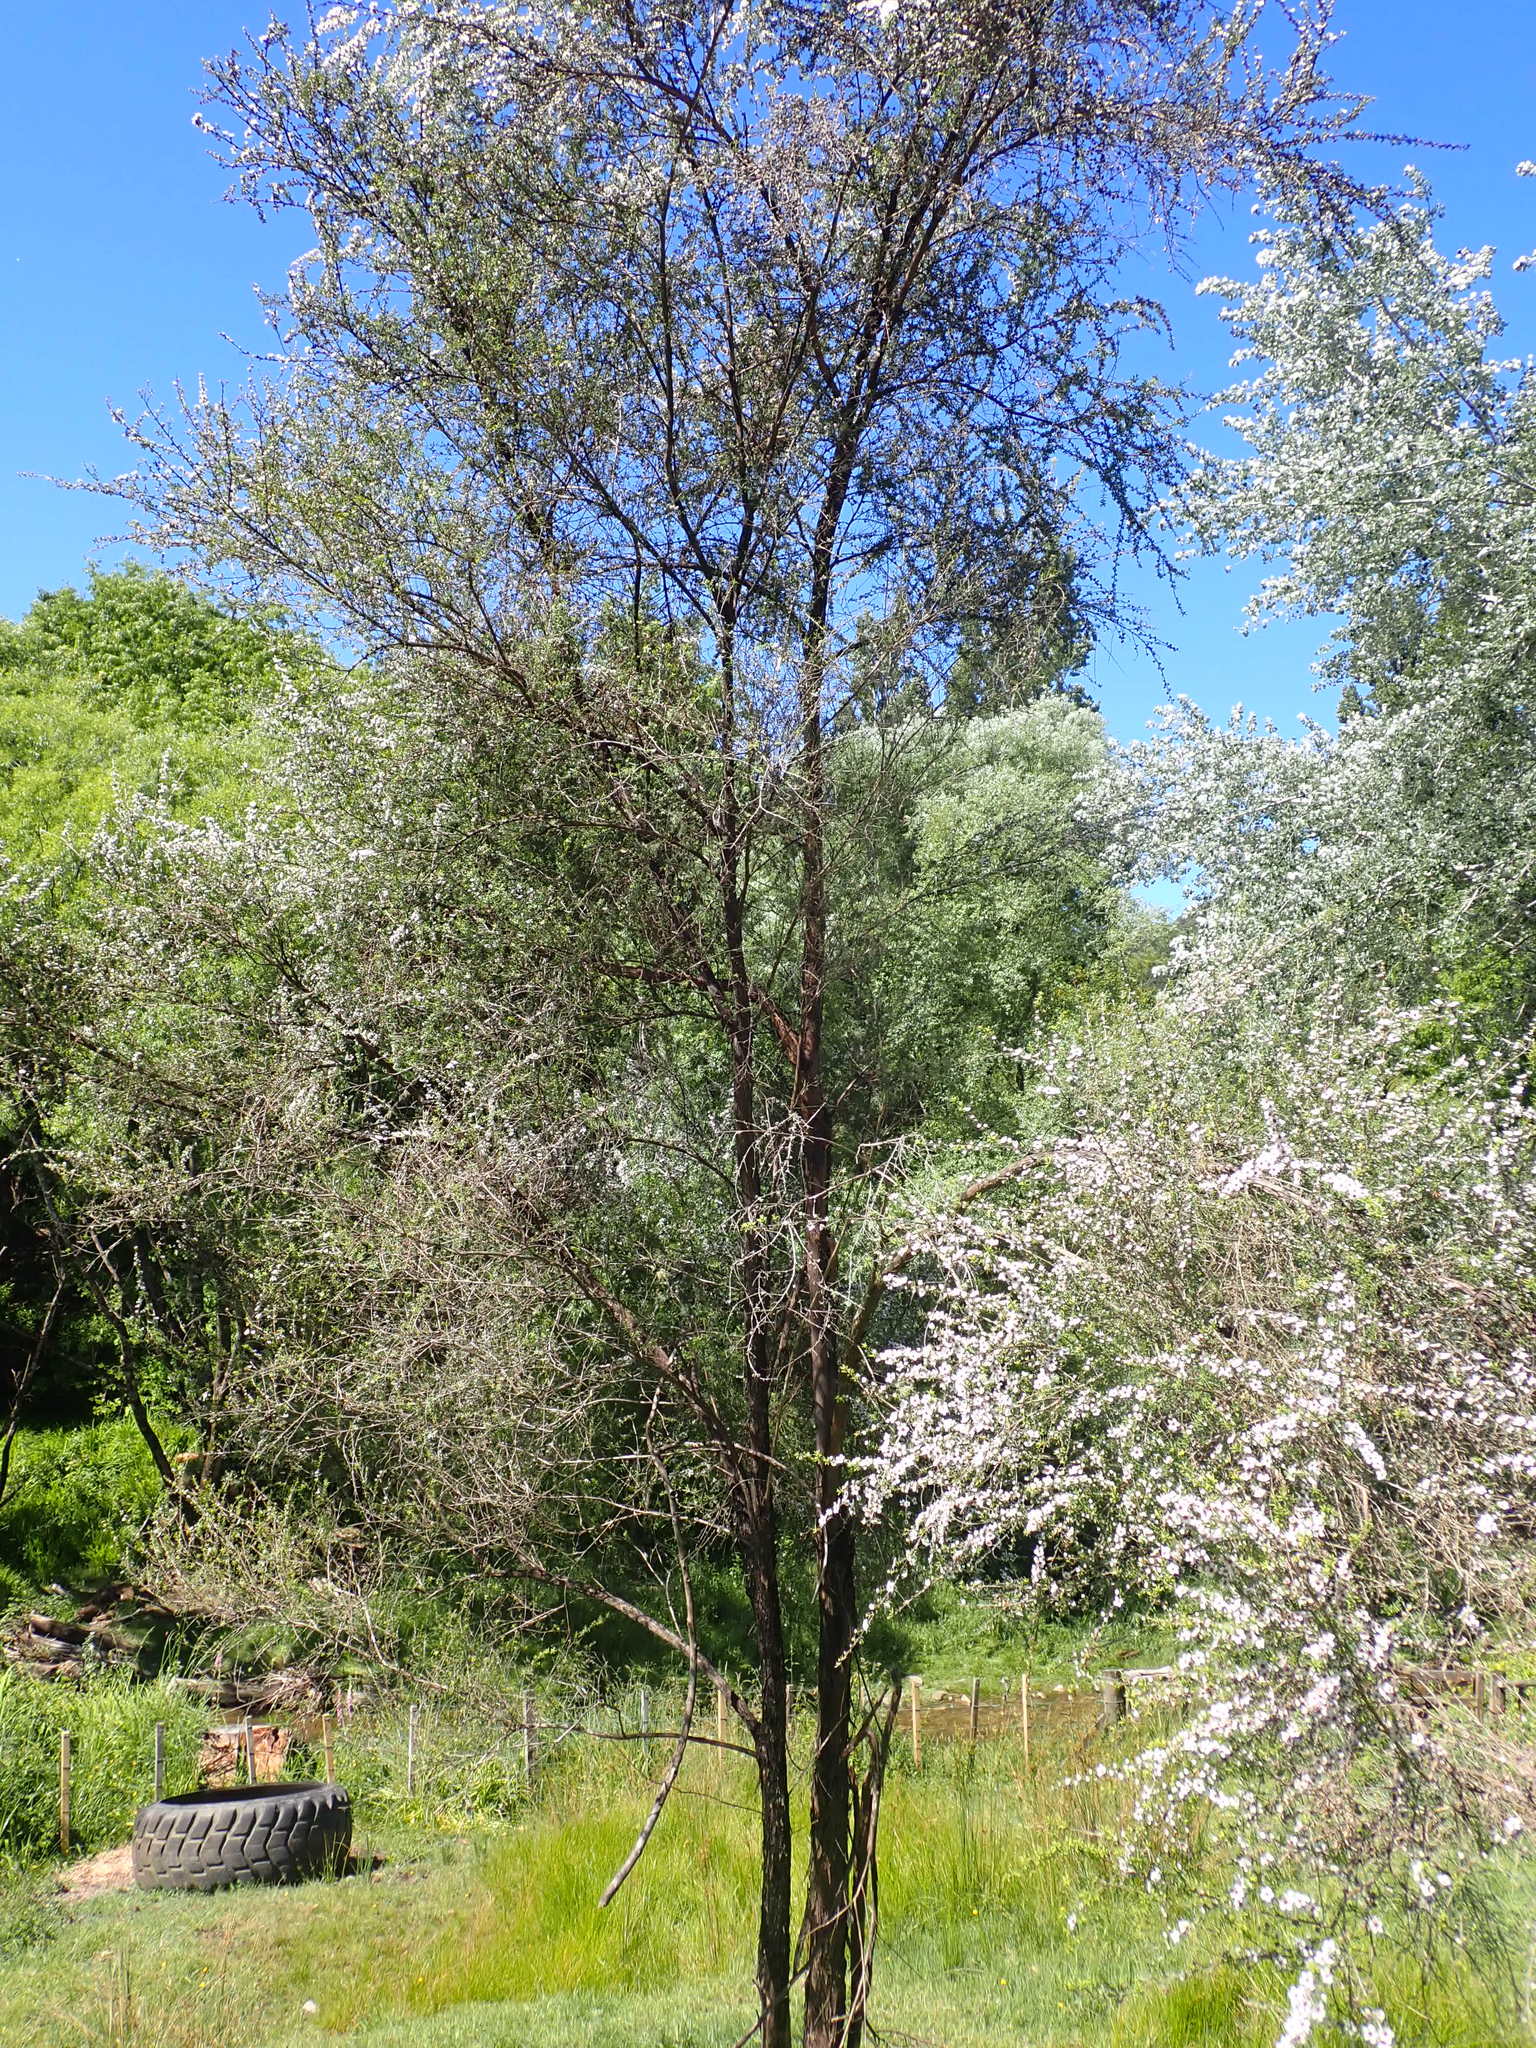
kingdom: Plantae
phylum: Tracheophyta
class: Magnoliopsida
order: Myrtales
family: Myrtaceae
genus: Leptospermum
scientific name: Leptospermum scoparium
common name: Broom tea-tree
